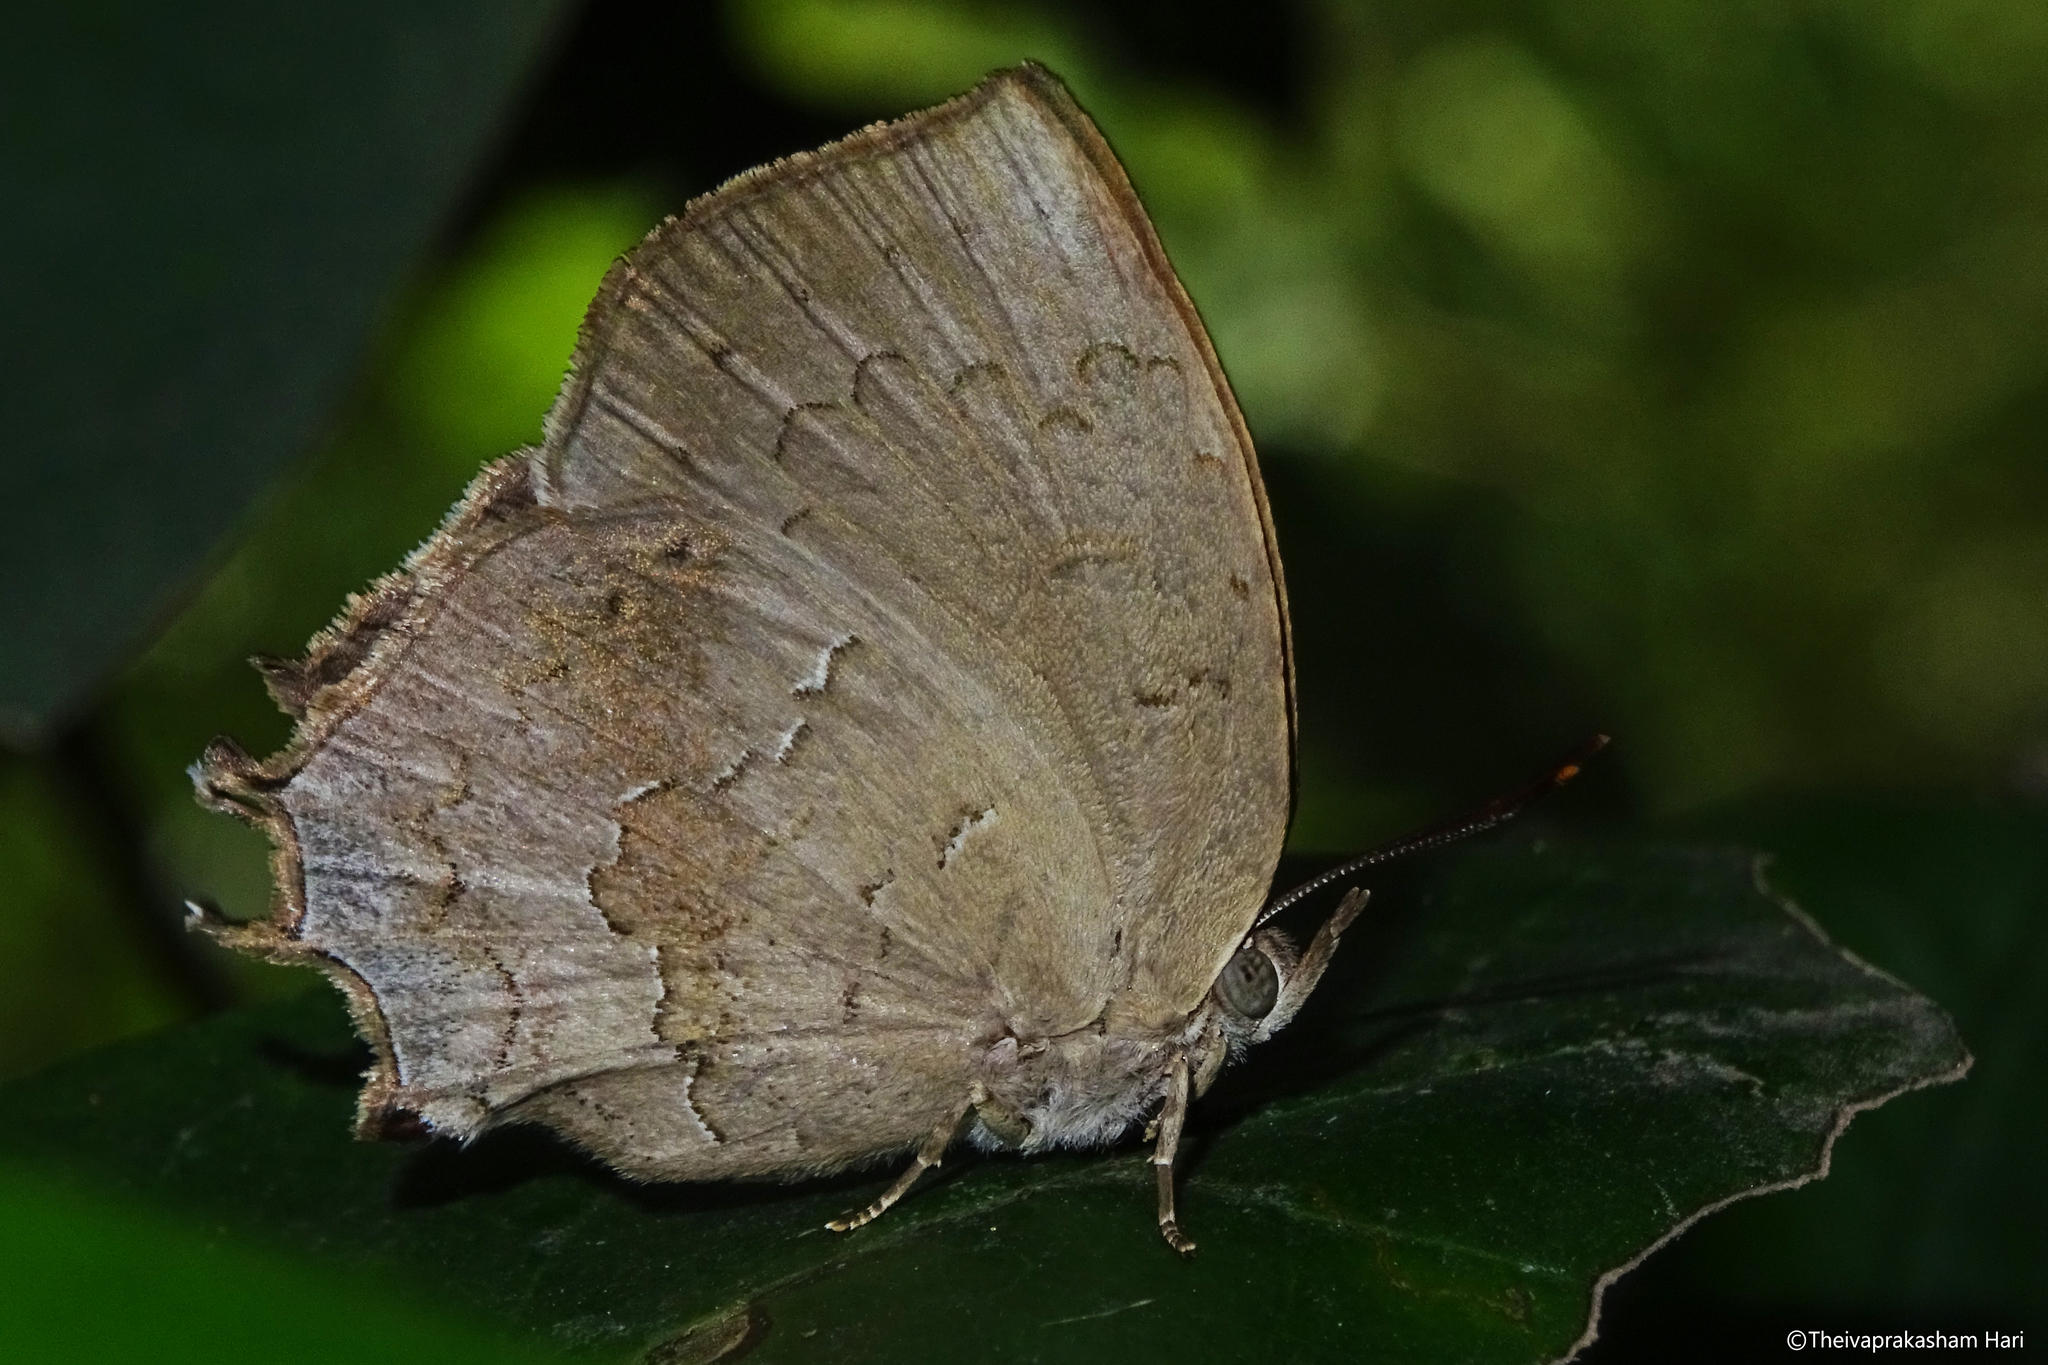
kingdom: Animalia
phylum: Arthropoda
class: Insecta
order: Lepidoptera
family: Lycaenidae
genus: Surendra
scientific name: Surendra quercetorum
